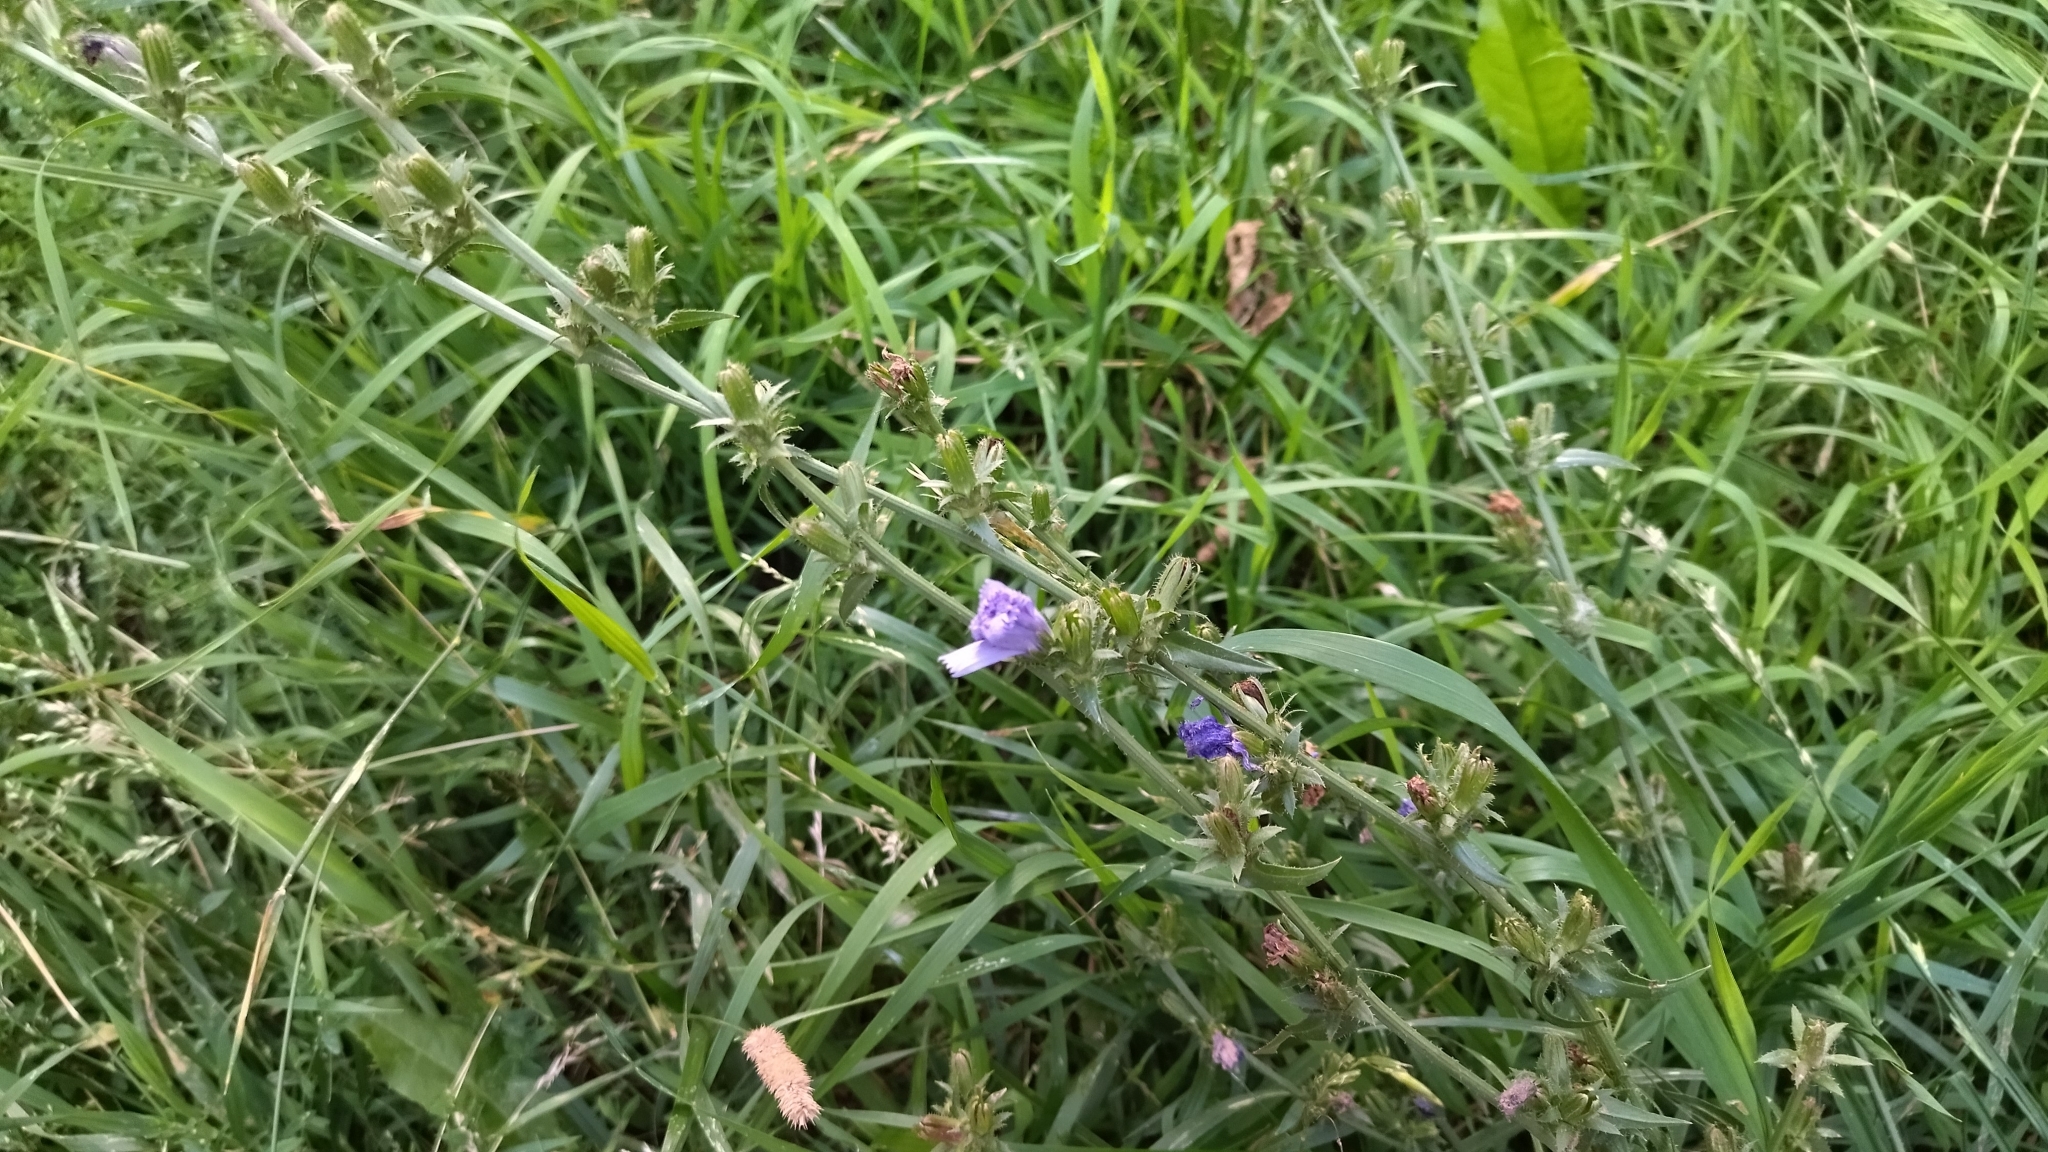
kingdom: Plantae
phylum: Tracheophyta
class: Magnoliopsida
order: Asterales
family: Asteraceae
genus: Cichorium
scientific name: Cichorium intybus
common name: Chicory
